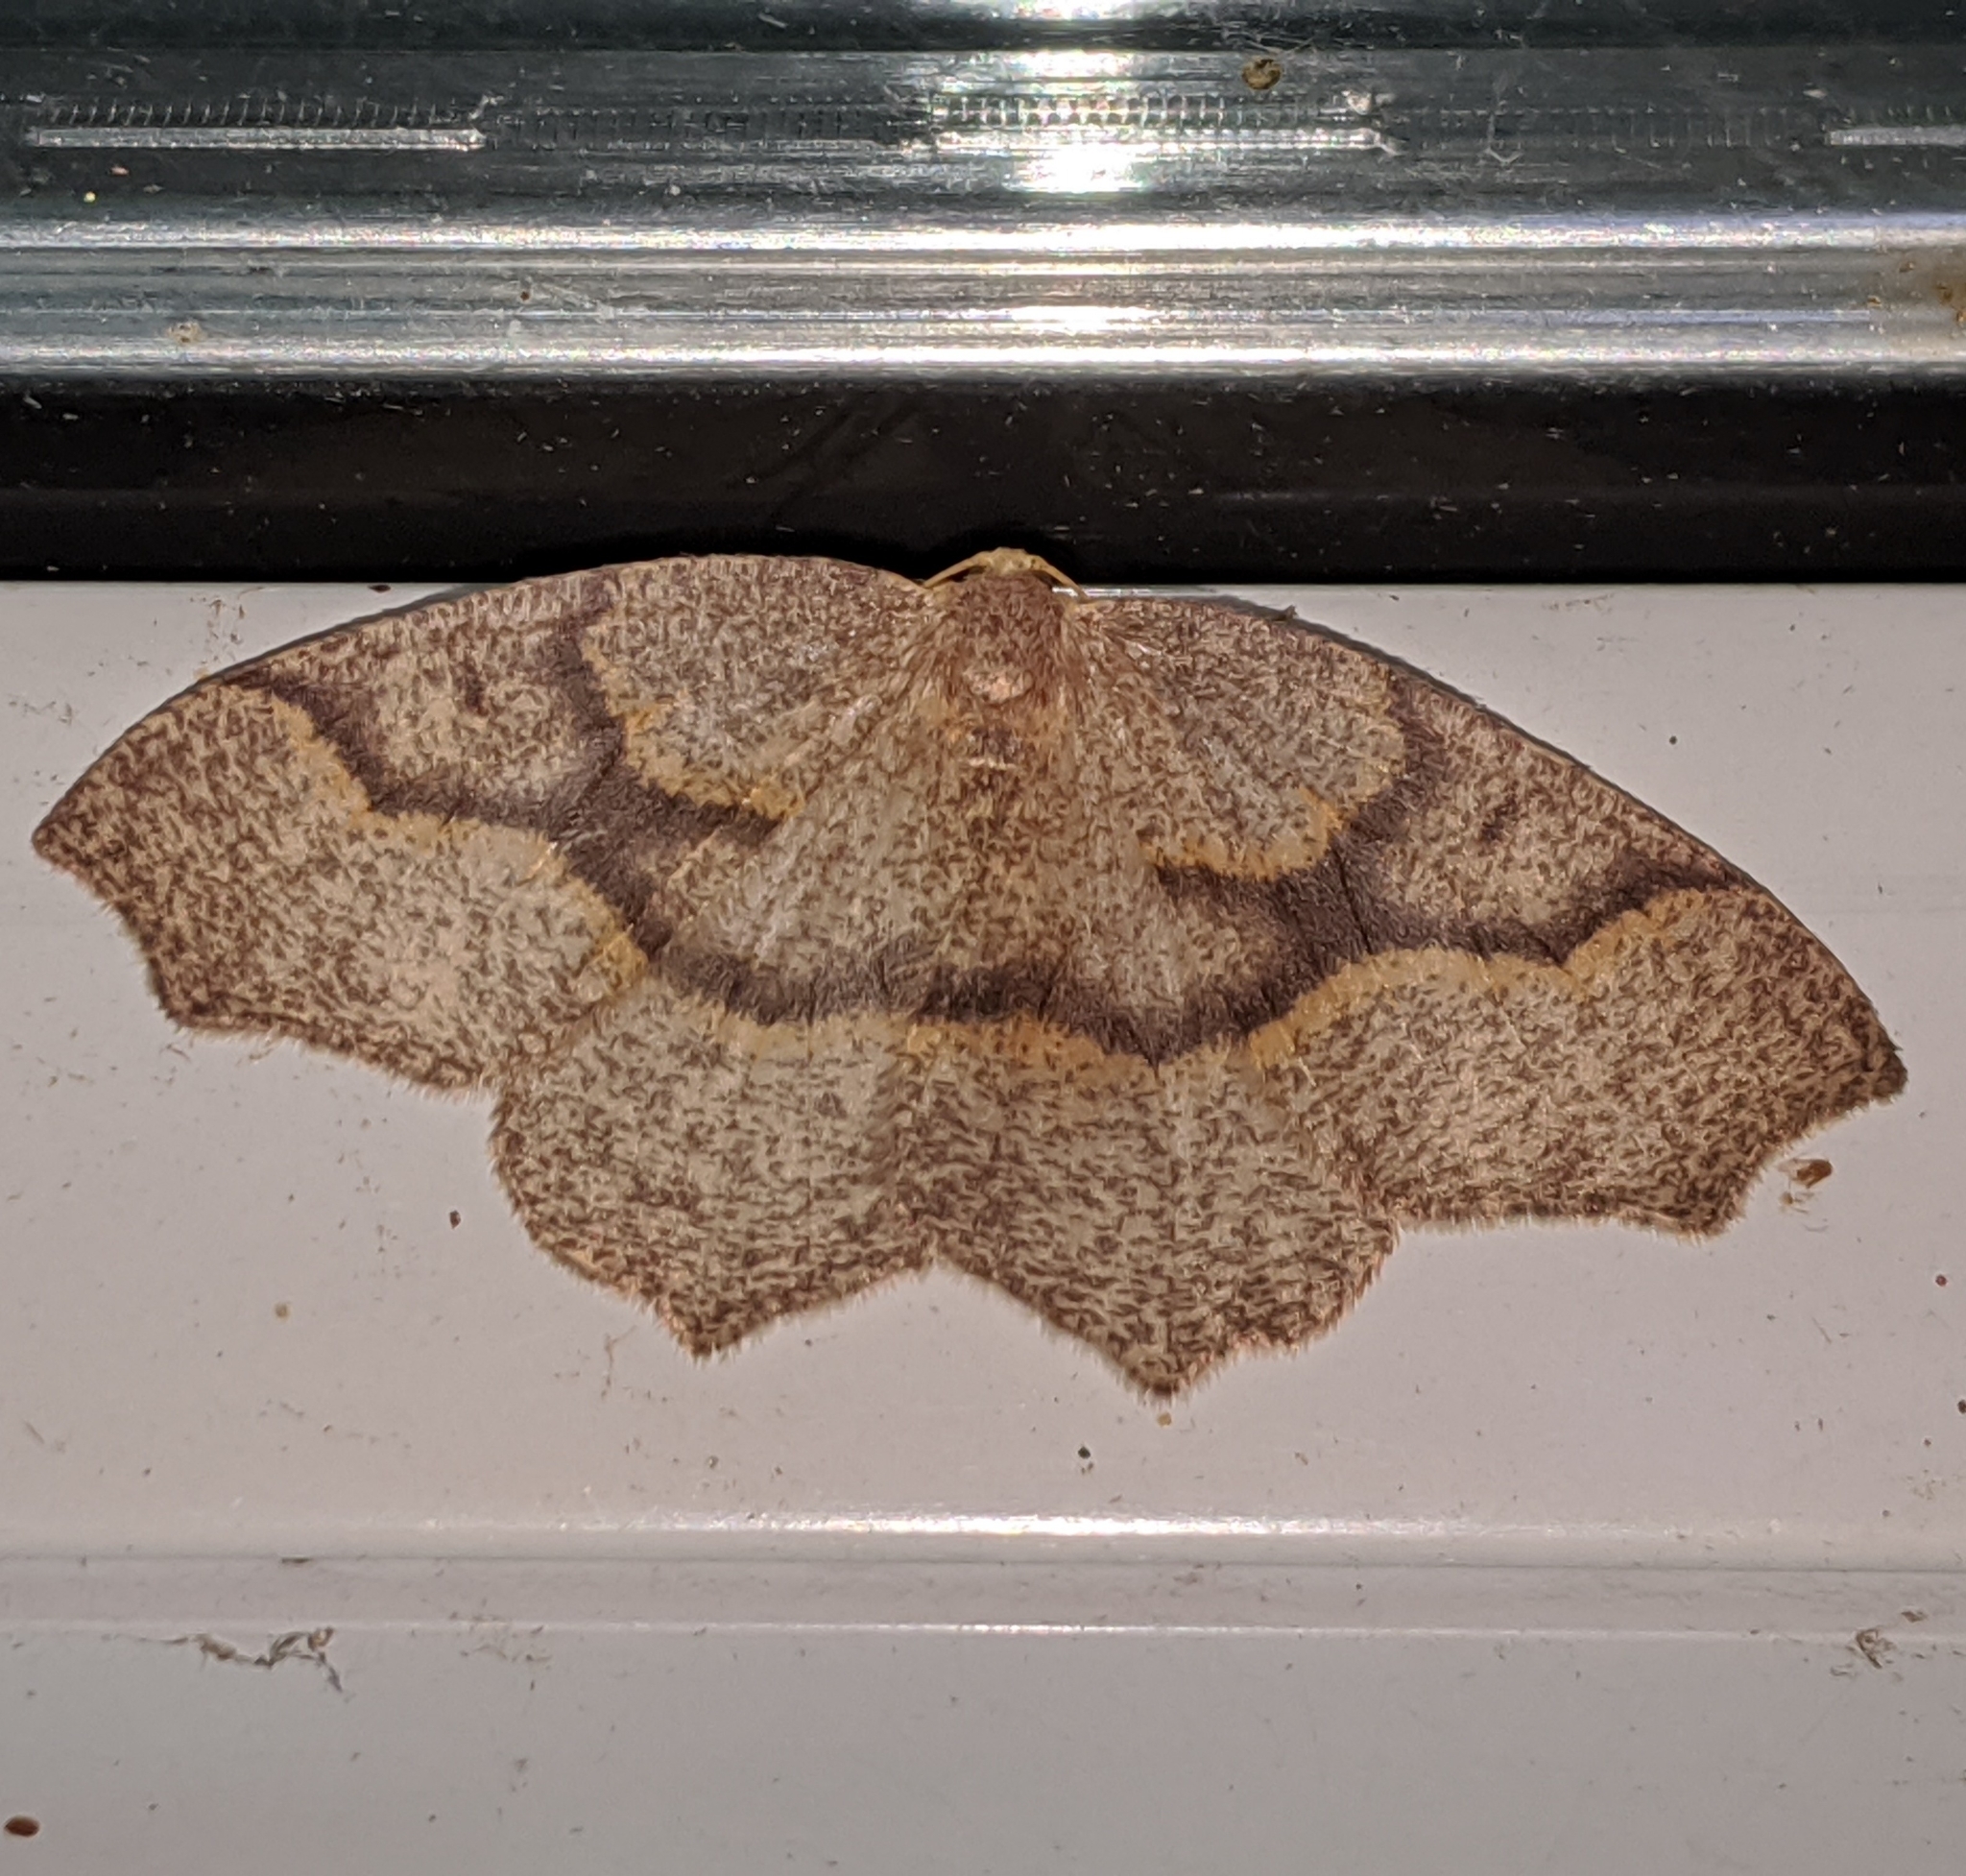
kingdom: Animalia
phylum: Arthropoda
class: Insecta
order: Lepidoptera
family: Geometridae
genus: Lambdina
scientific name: Lambdina fiscellaria
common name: Hemlock looper
